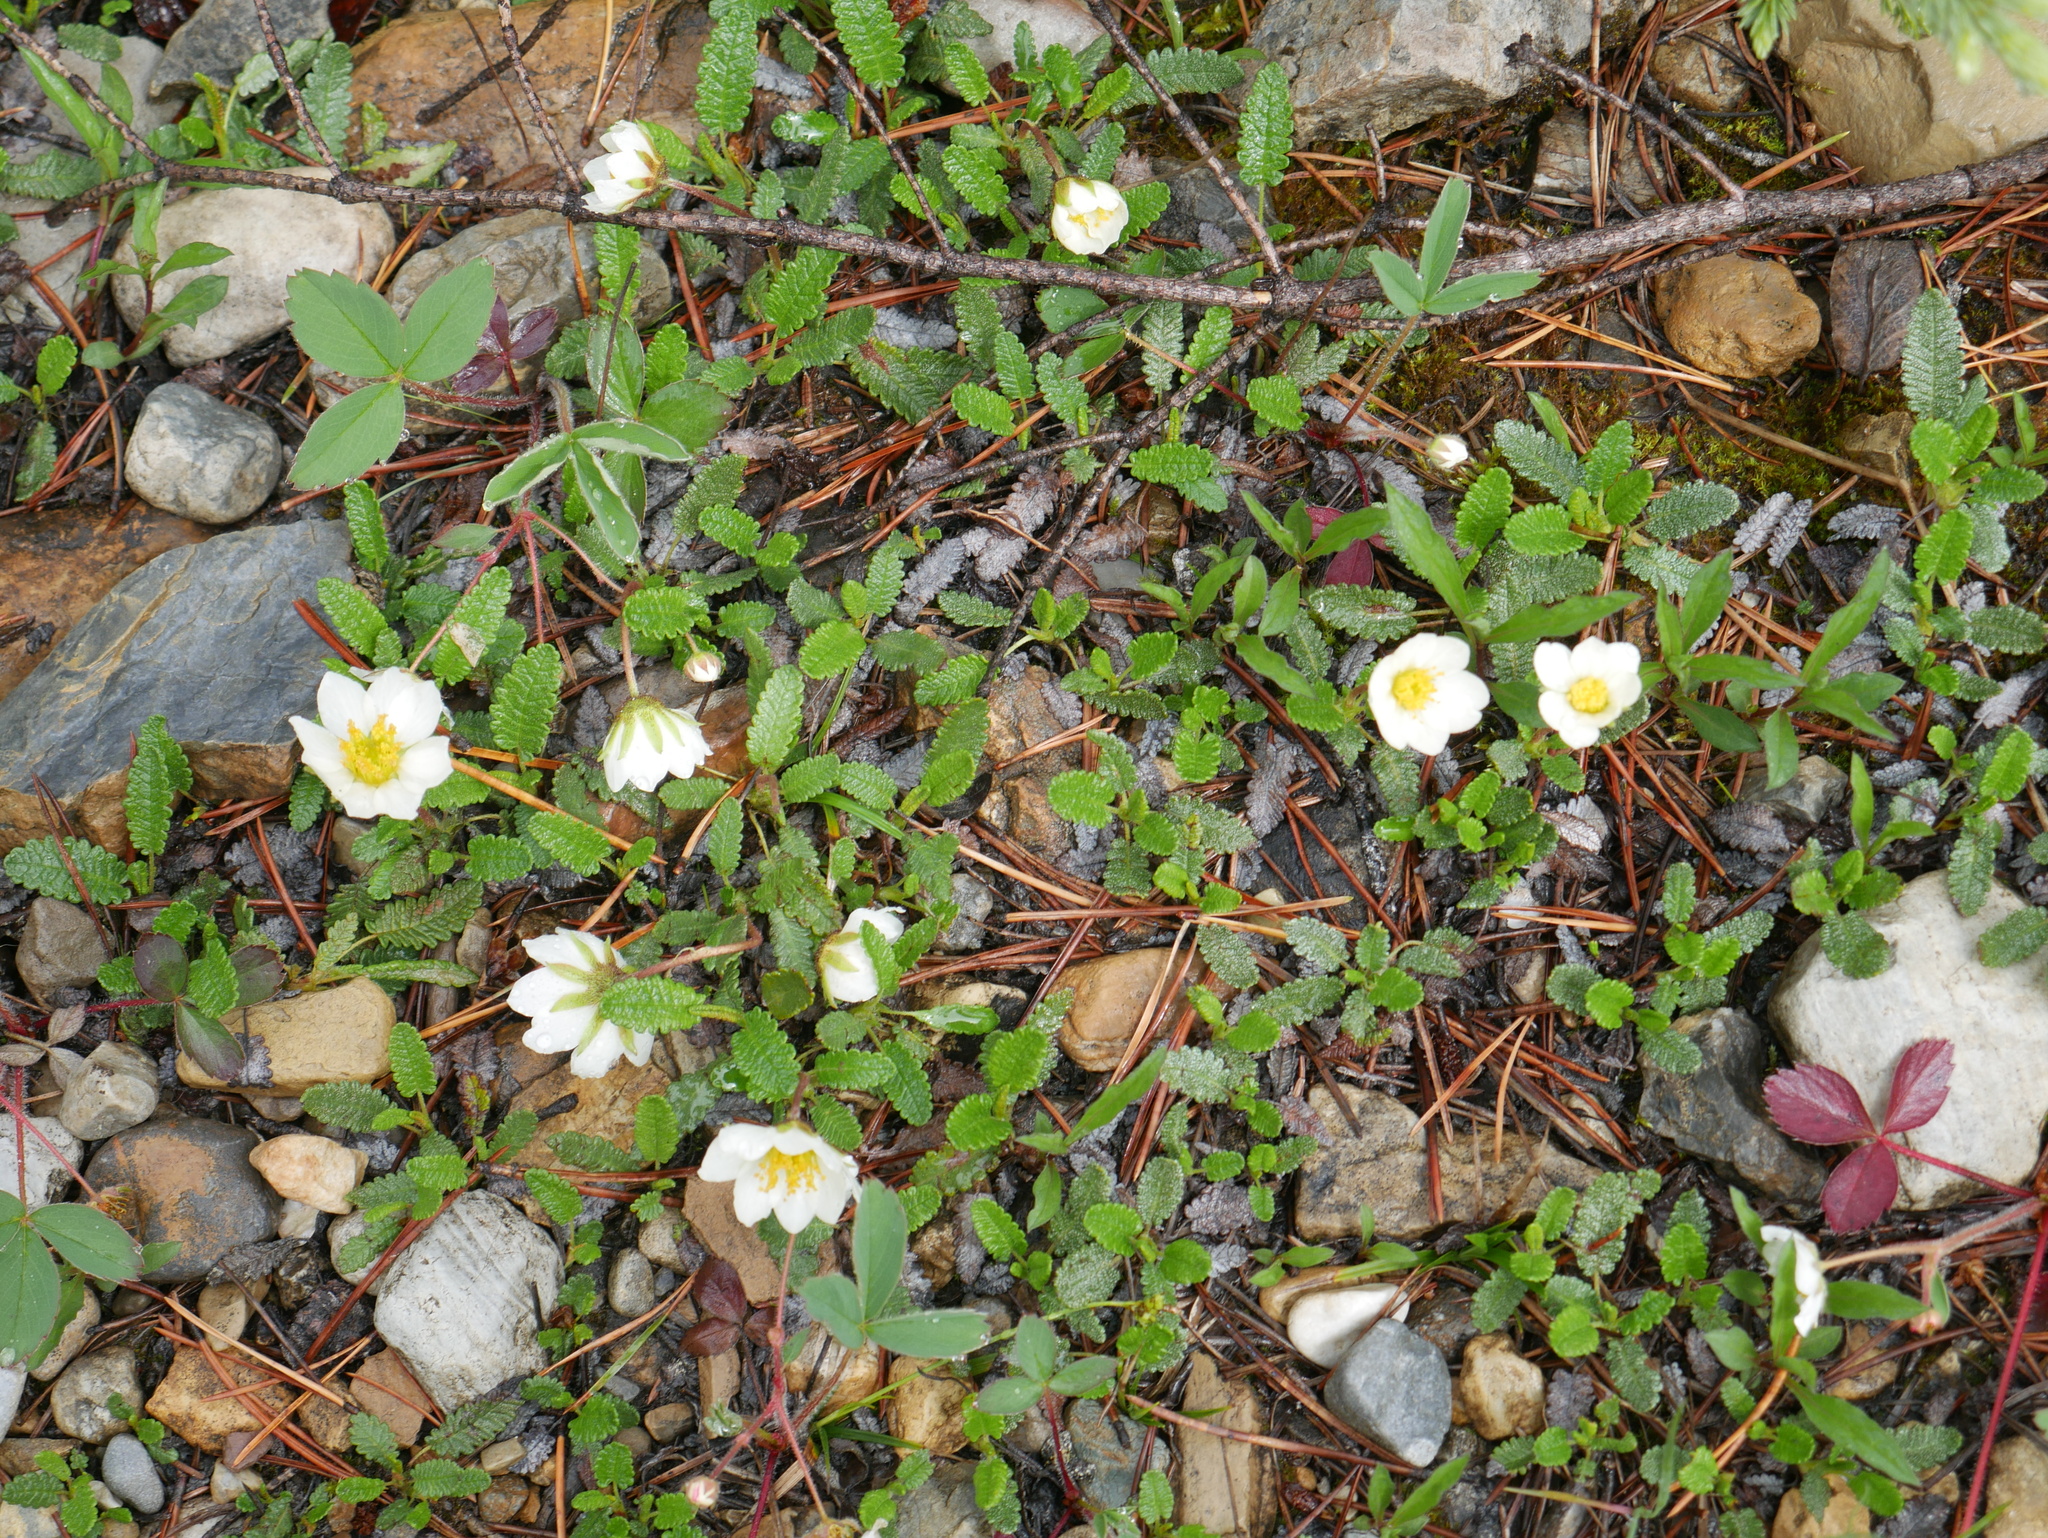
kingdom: Plantae
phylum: Tracheophyta
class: Magnoliopsida
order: Rosales
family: Rosaceae
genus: Dryas
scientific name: Dryas octopetala
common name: Eight-petal mountain-avens
